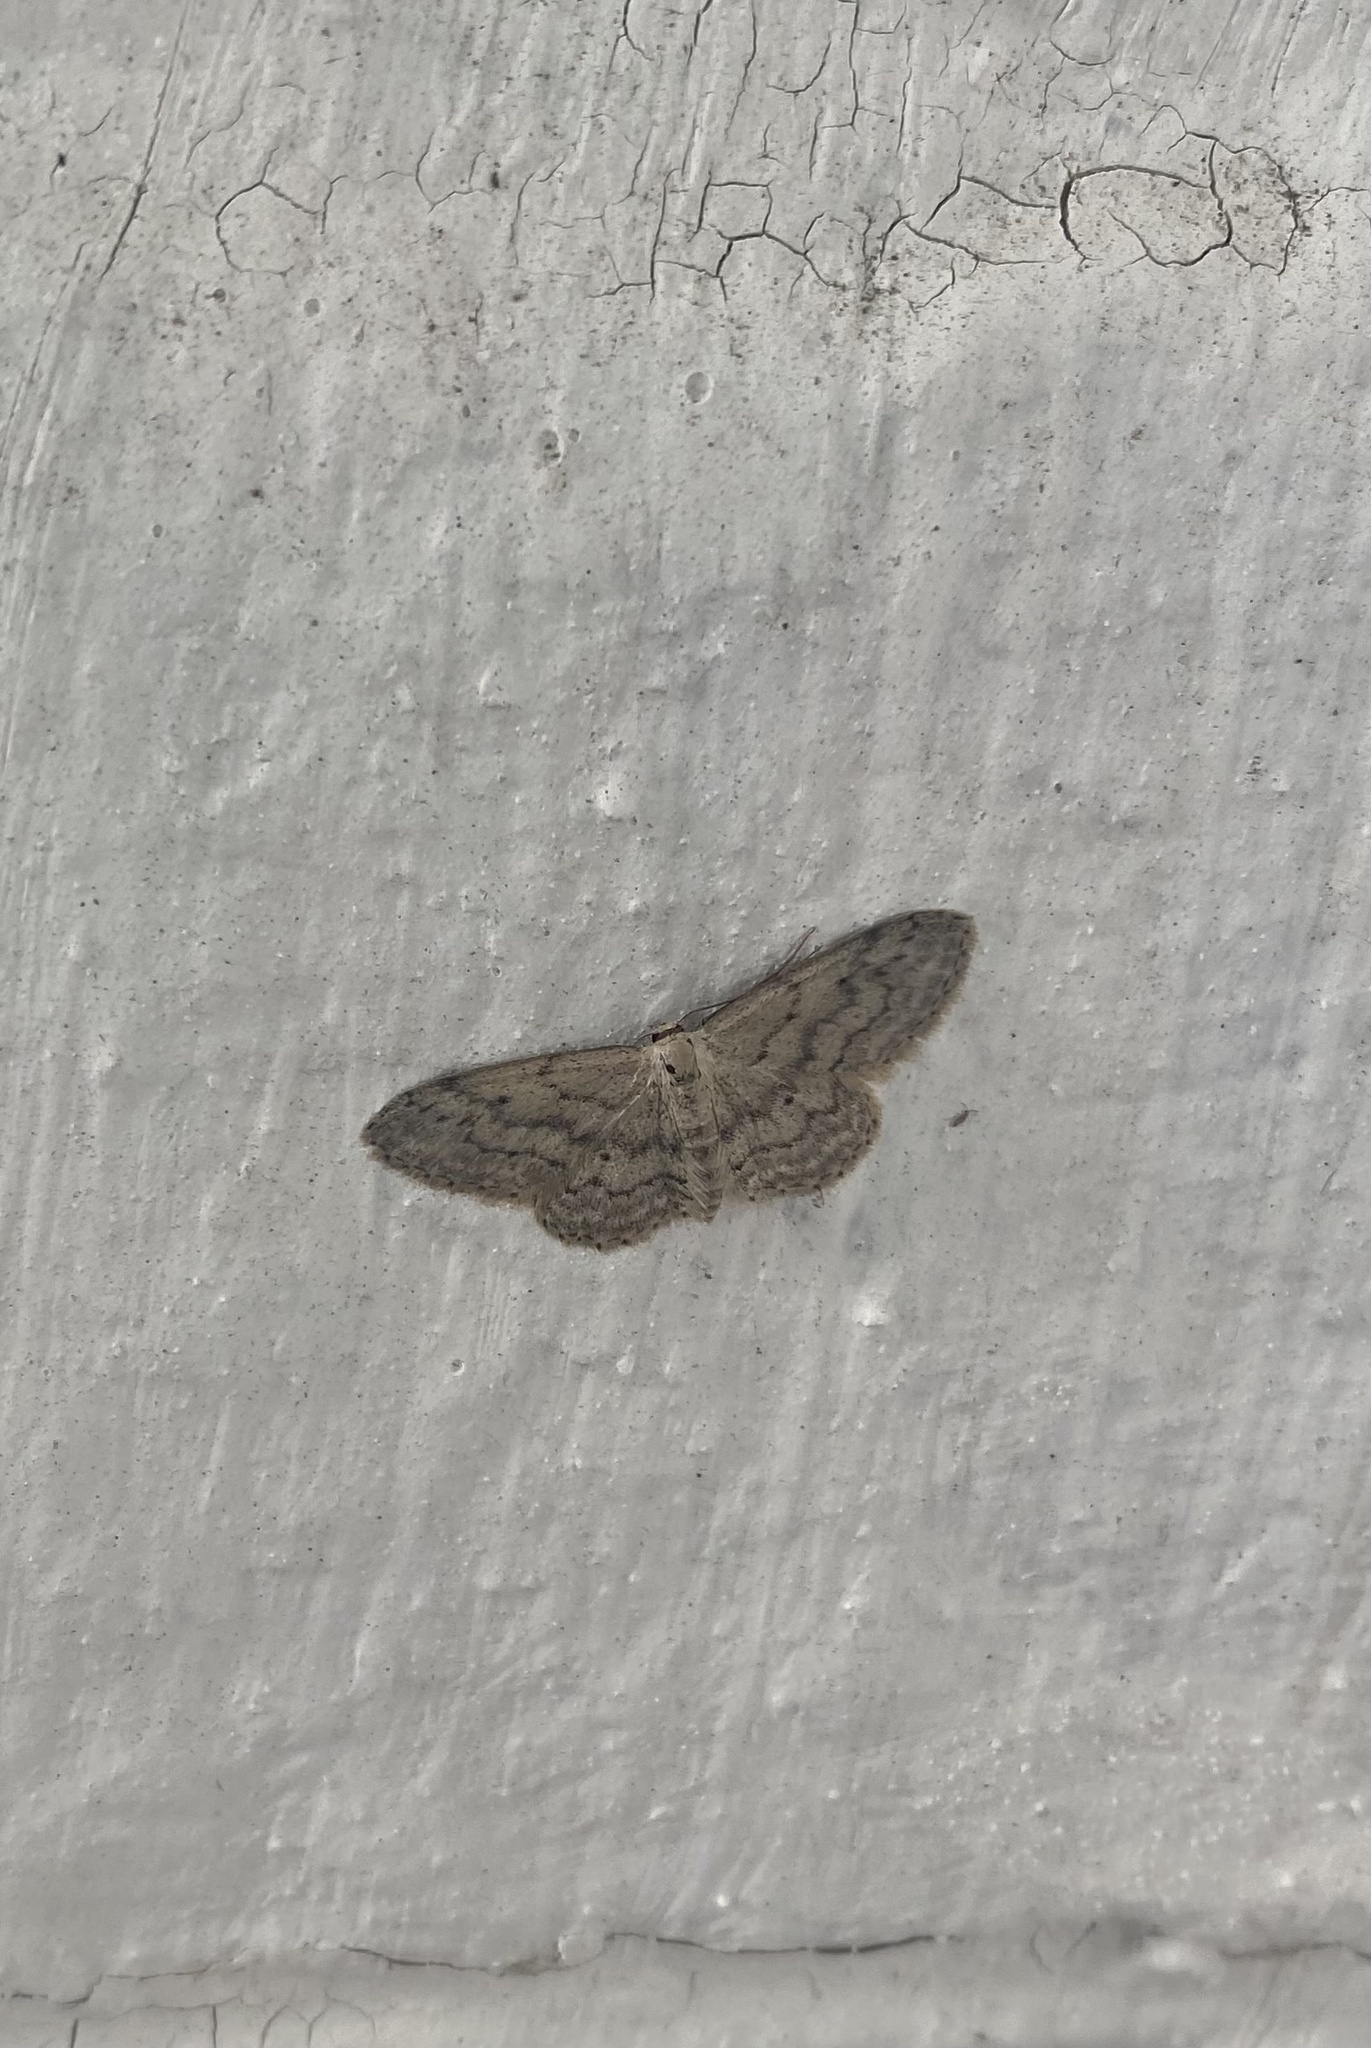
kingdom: Animalia
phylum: Arthropoda
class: Insecta
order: Lepidoptera
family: Geometridae
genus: Idaea
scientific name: Idaea seriata
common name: Small dusty wave
